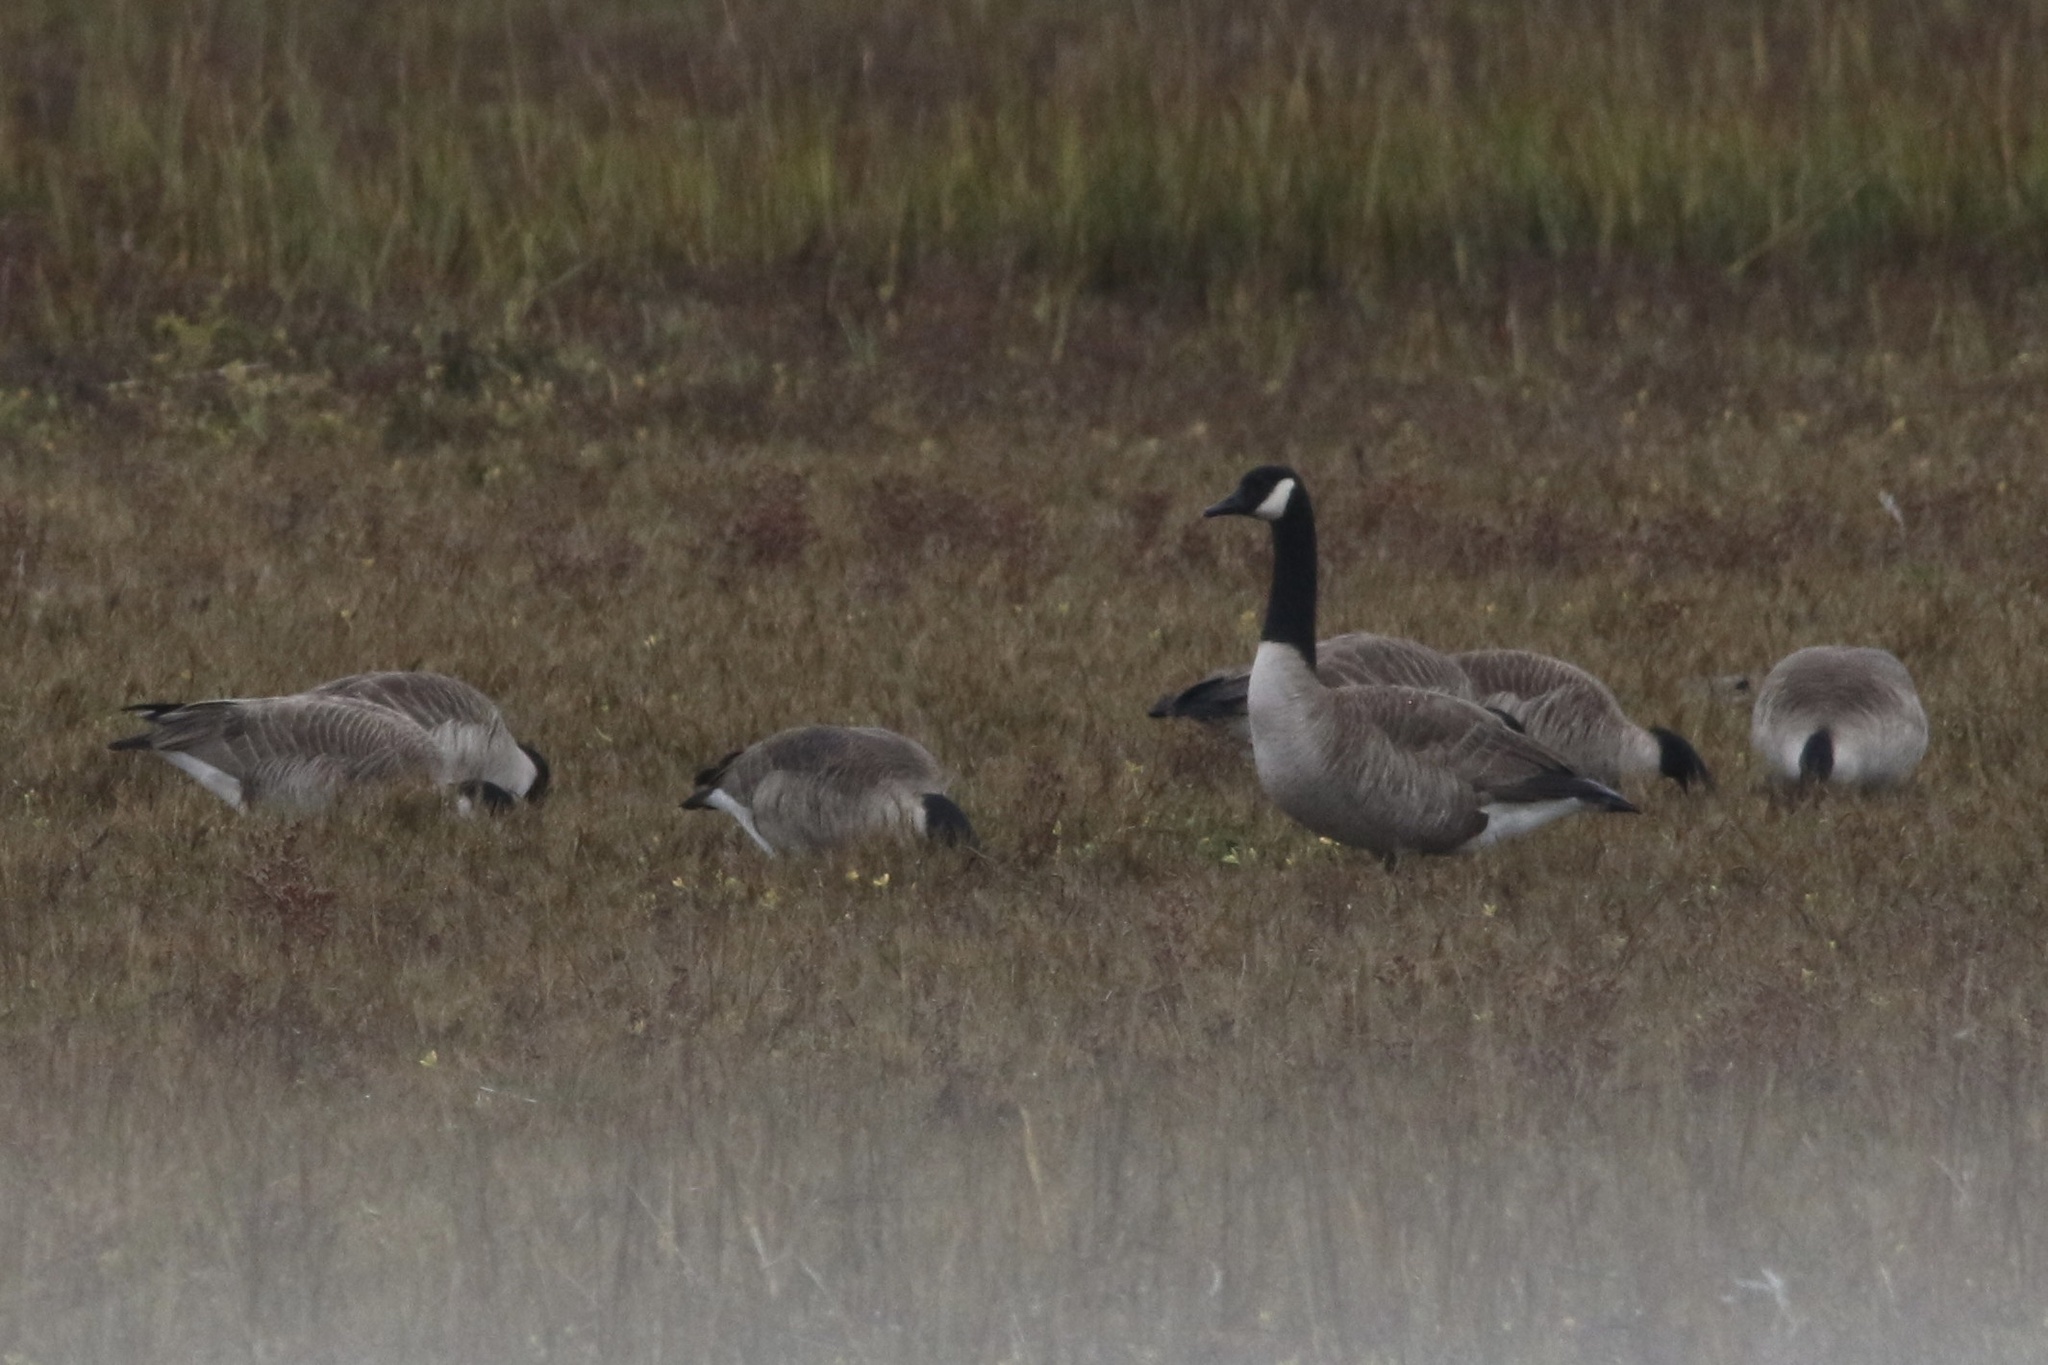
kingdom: Animalia
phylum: Chordata
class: Aves
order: Anseriformes
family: Anatidae
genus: Branta
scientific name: Branta canadensis
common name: Canada goose
